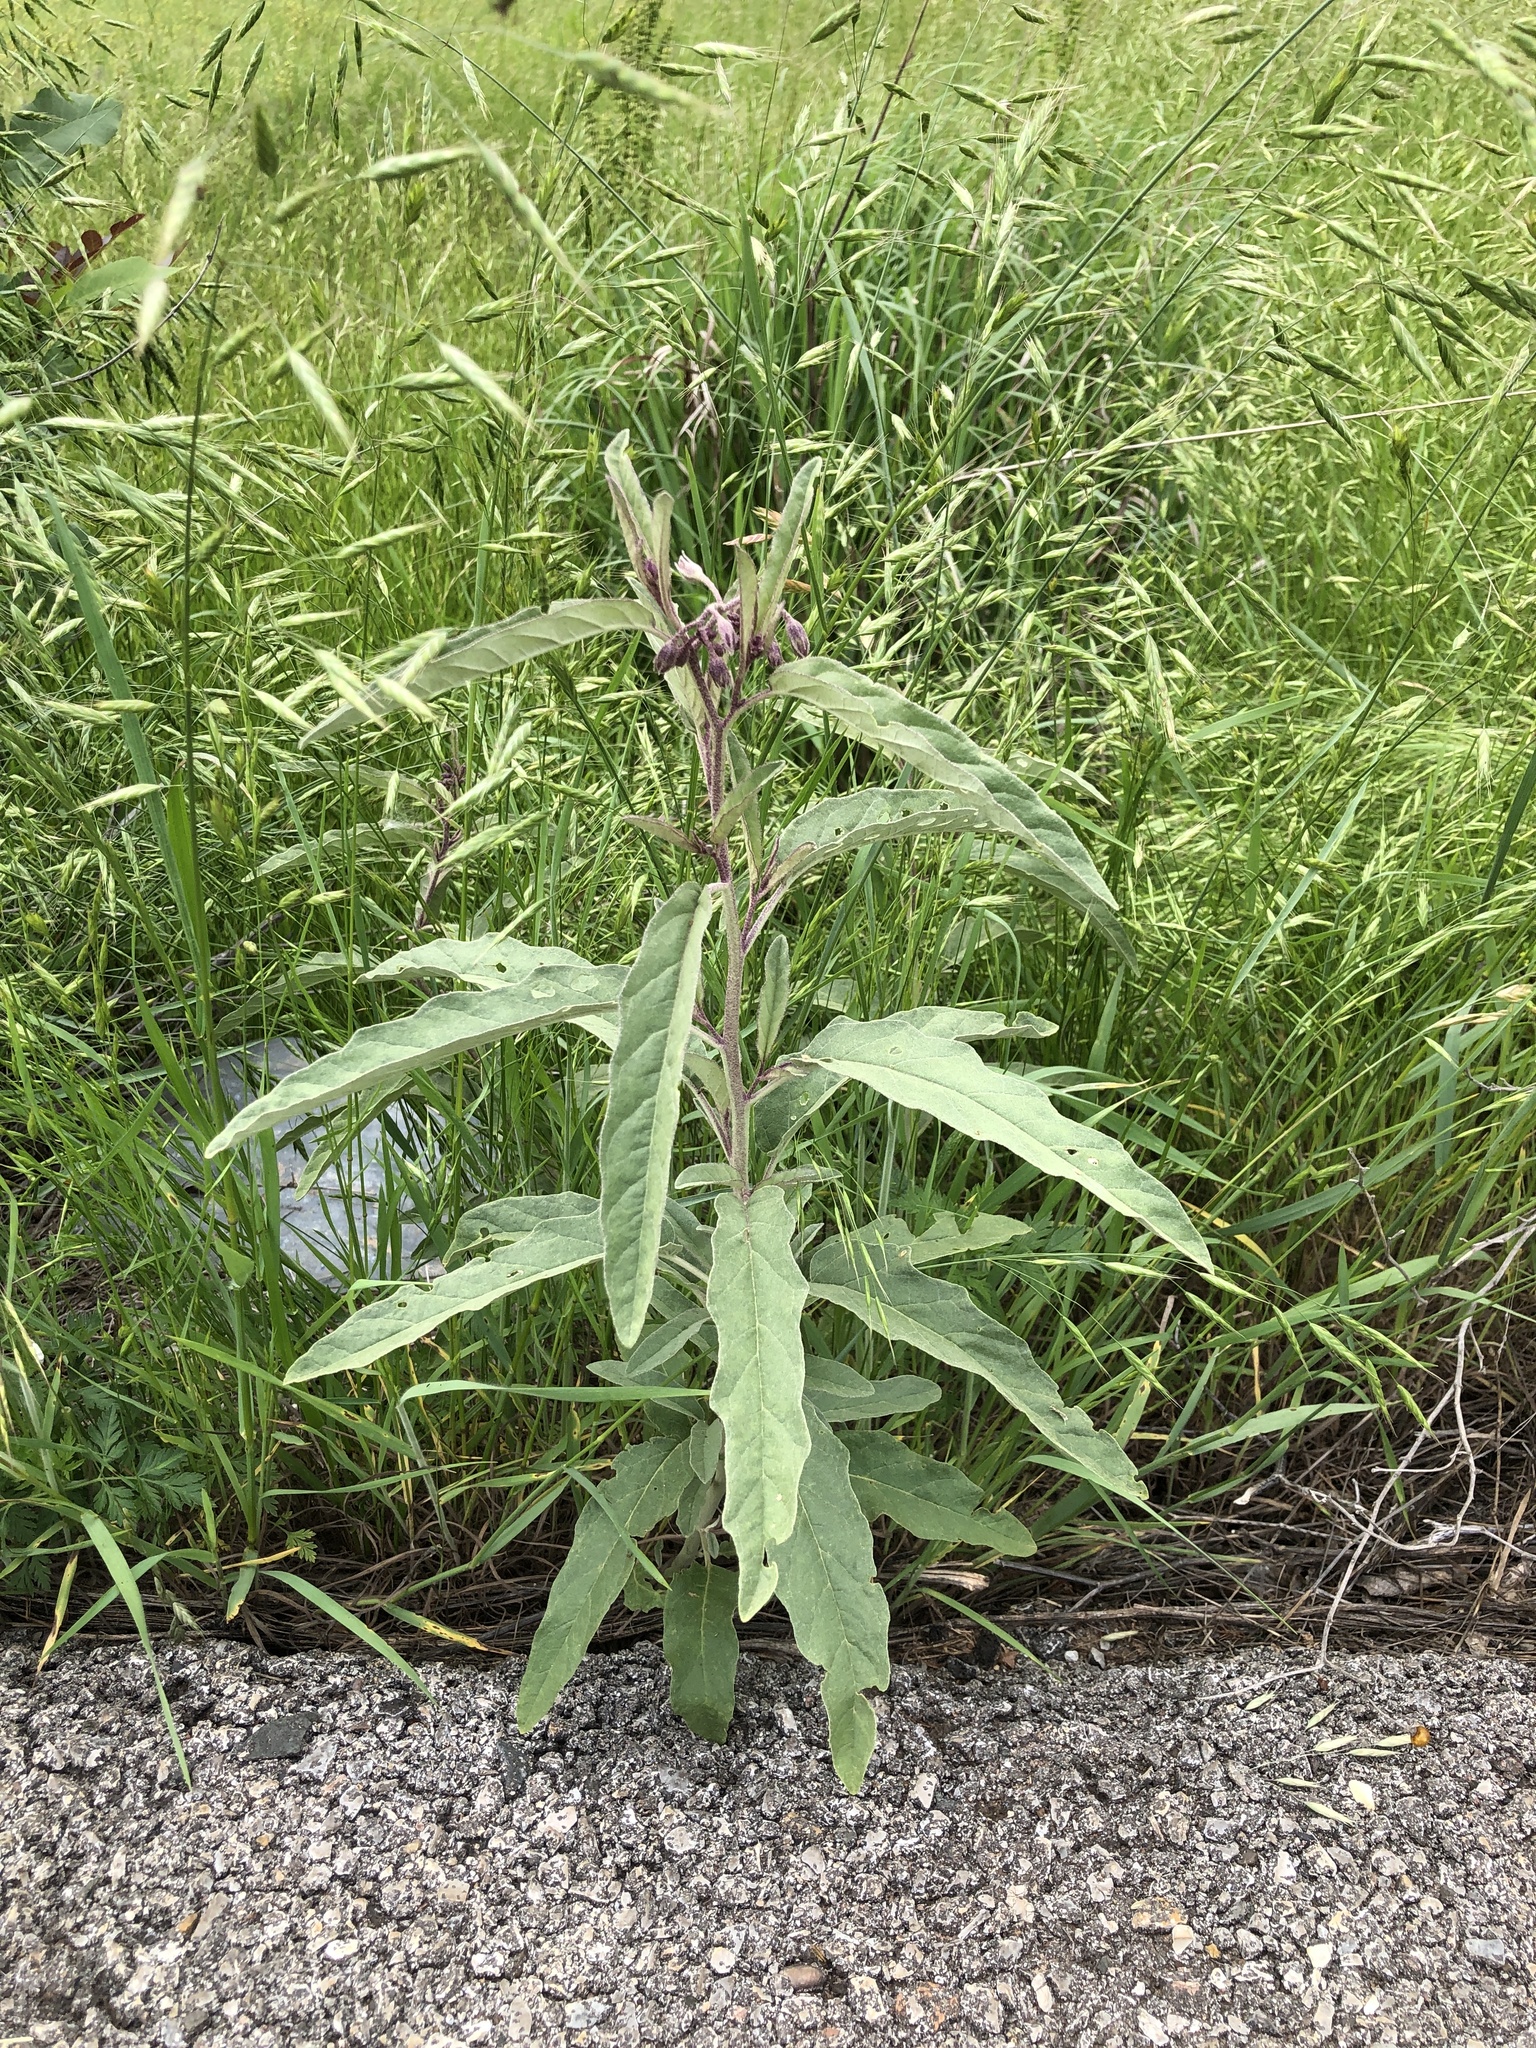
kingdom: Plantae
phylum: Tracheophyta
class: Magnoliopsida
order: Solanales
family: Solanaceae
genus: Solanum
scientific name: Solanum elaeagnifolium
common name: Silverleaf nightshade
